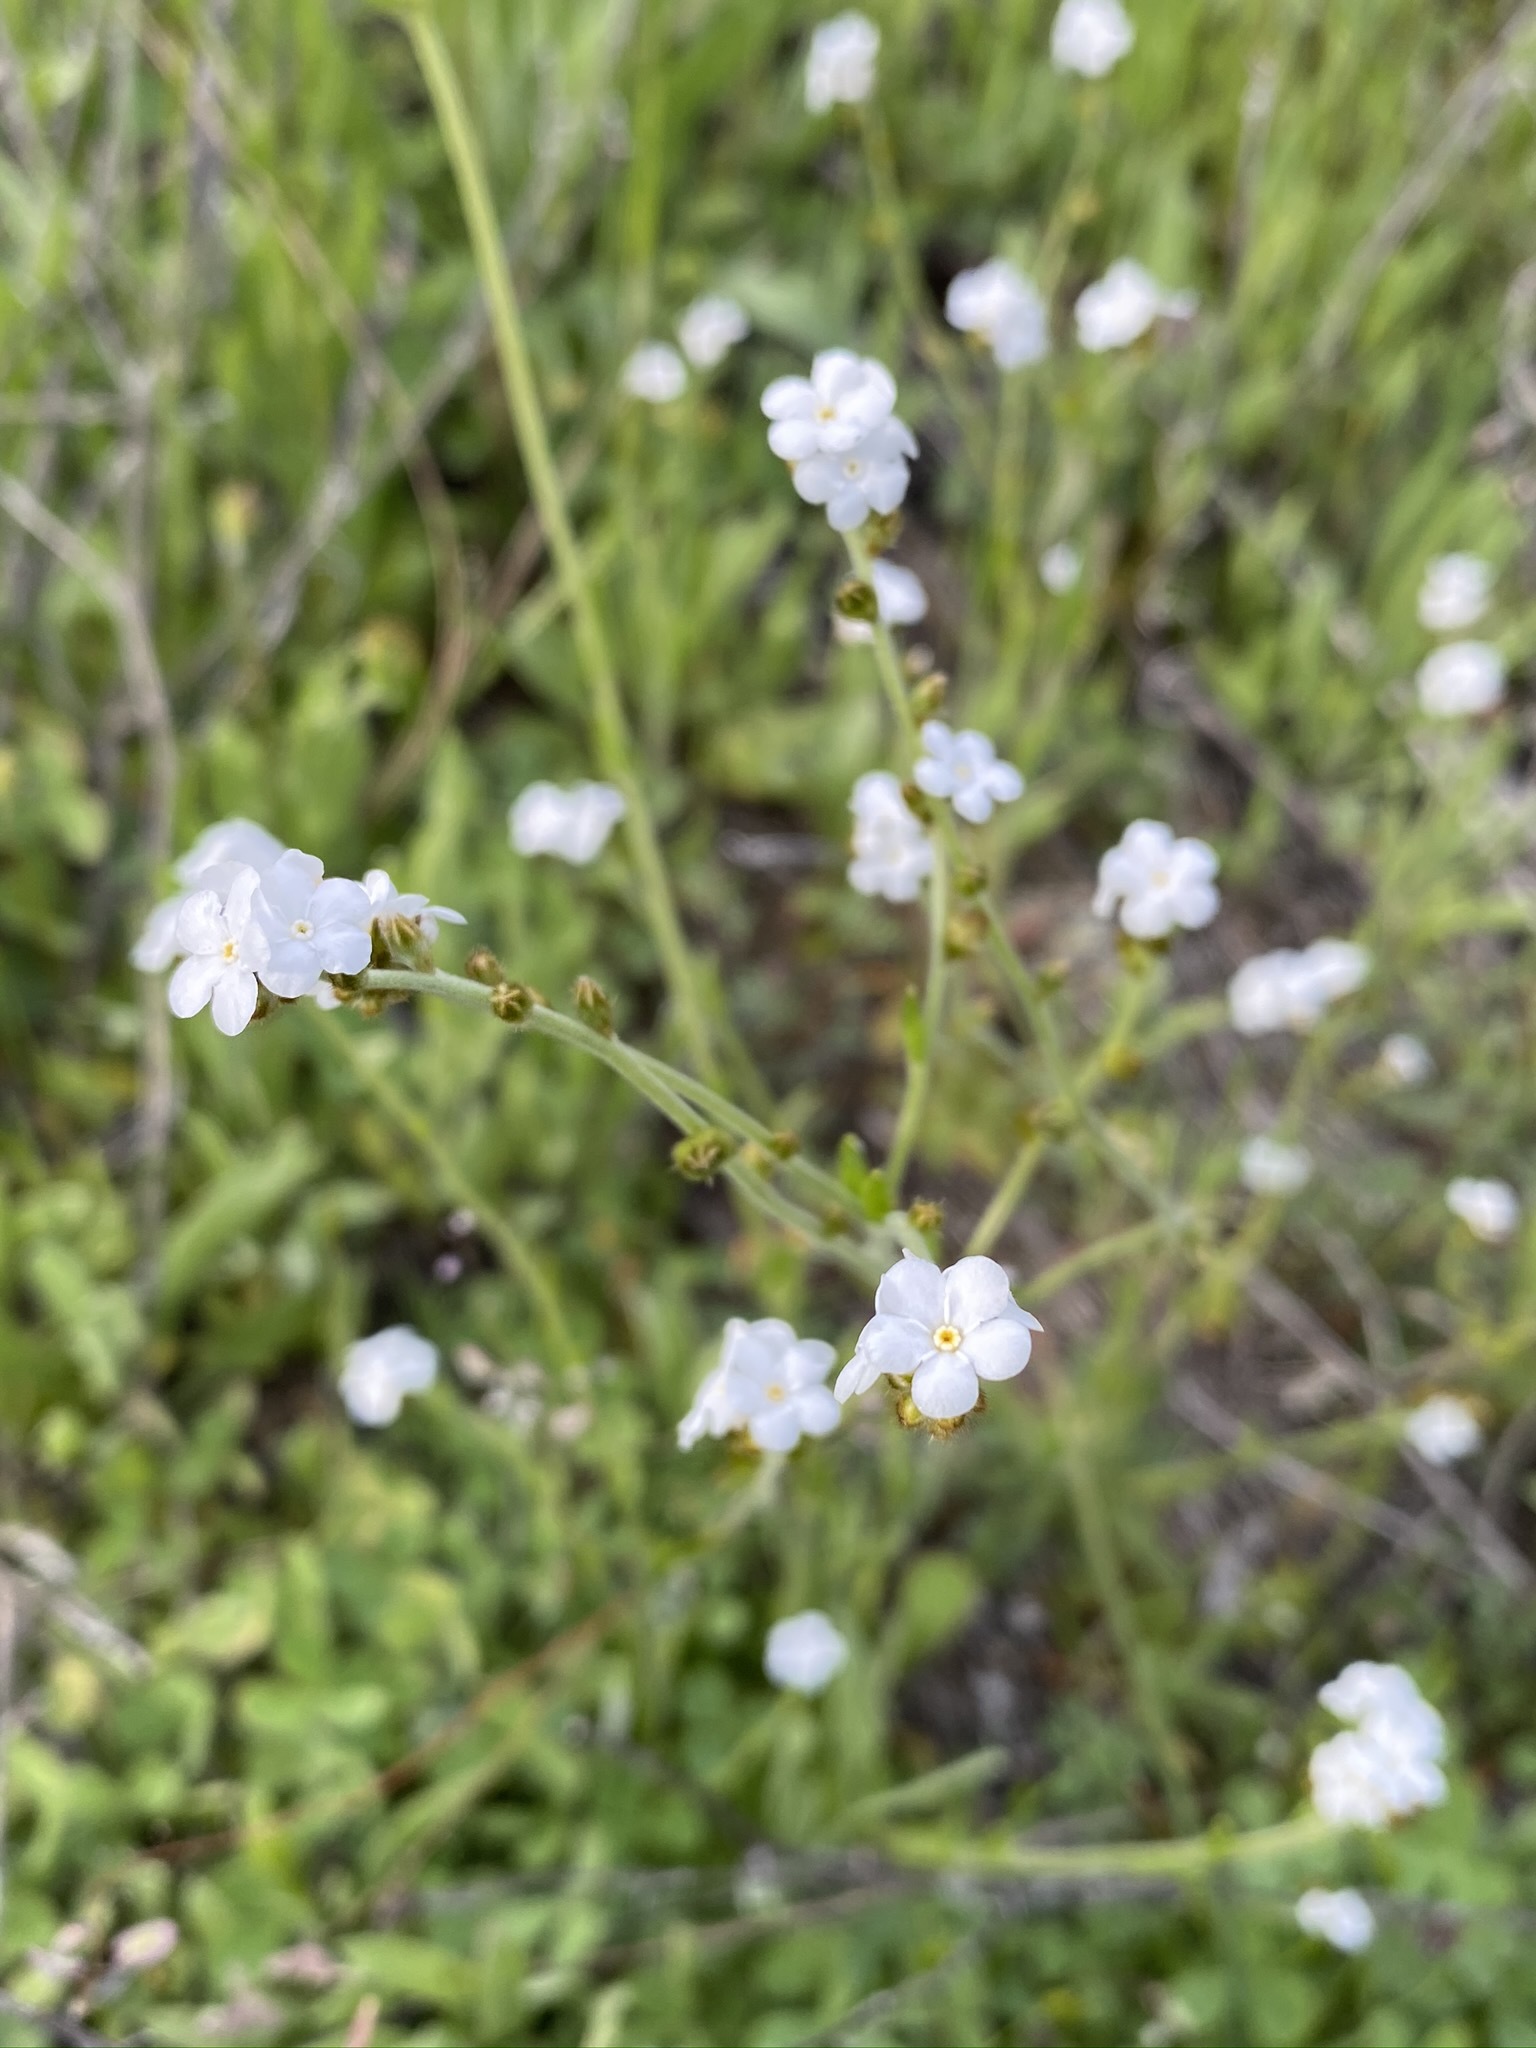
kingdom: Plantae
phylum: Tracheophyta
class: Magnoliopsida
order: Boraginales
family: Boraginaceae
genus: Plagiobothrys
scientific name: Plagiobothrys nothofulvus
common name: Popcorn-flower
